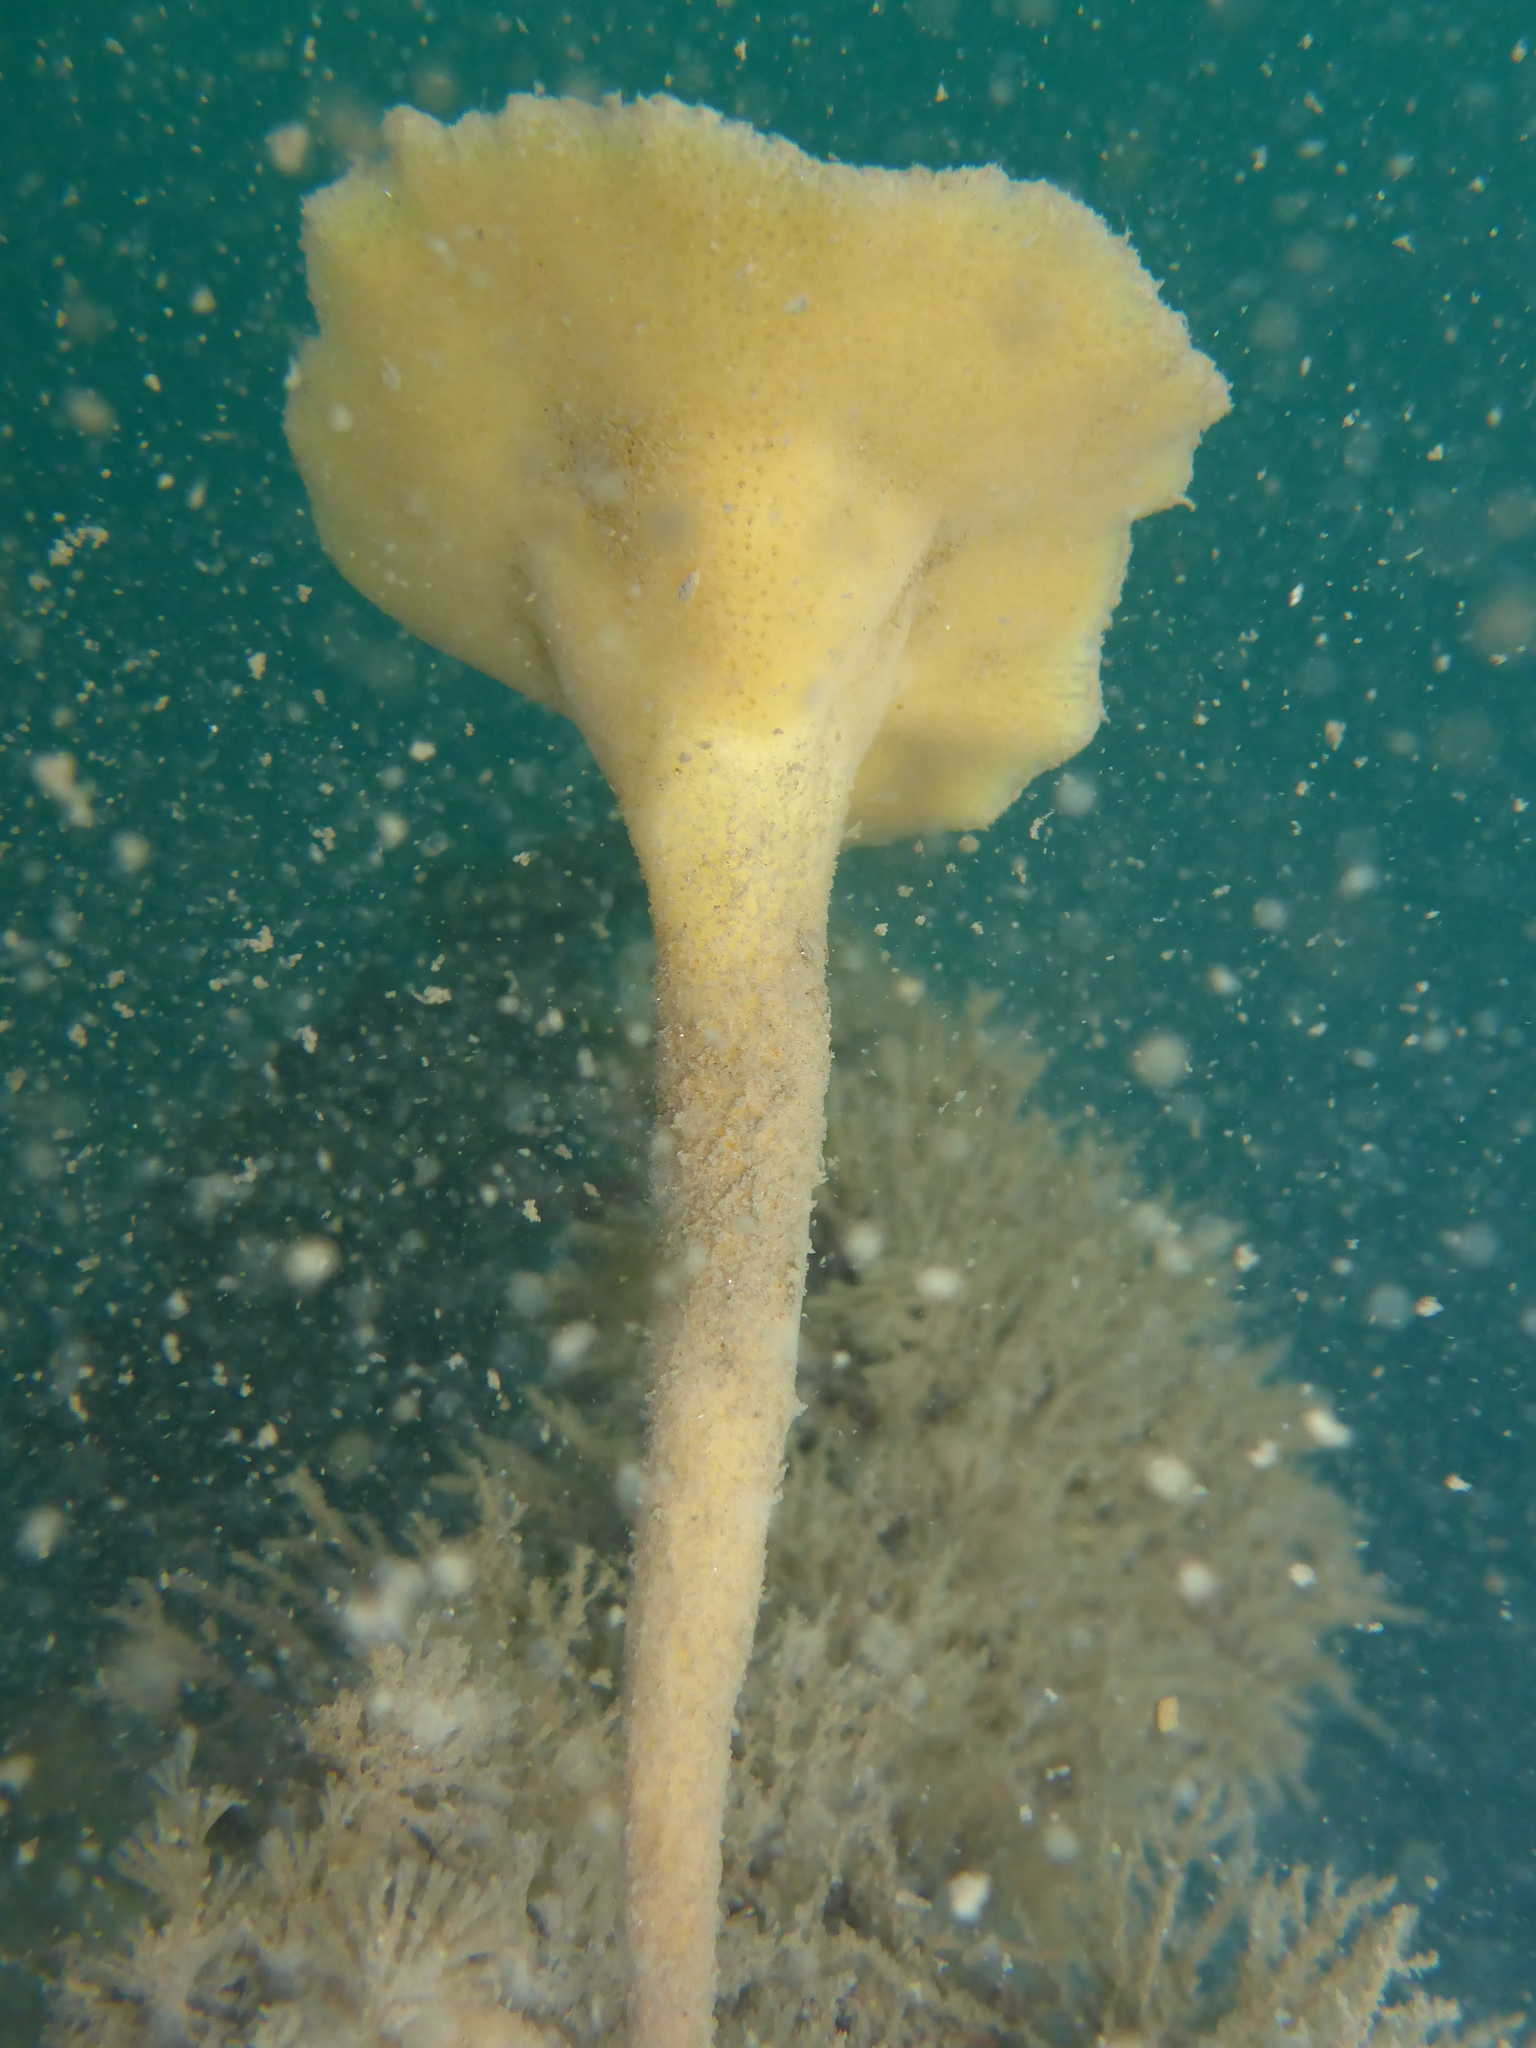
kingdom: Animalia
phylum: Porifera
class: Demospongiae
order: Poecilosclerida
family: Esperiopsidae
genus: Semisuberites
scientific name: Semisuberites cribrosa
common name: Lacy horny sponge
